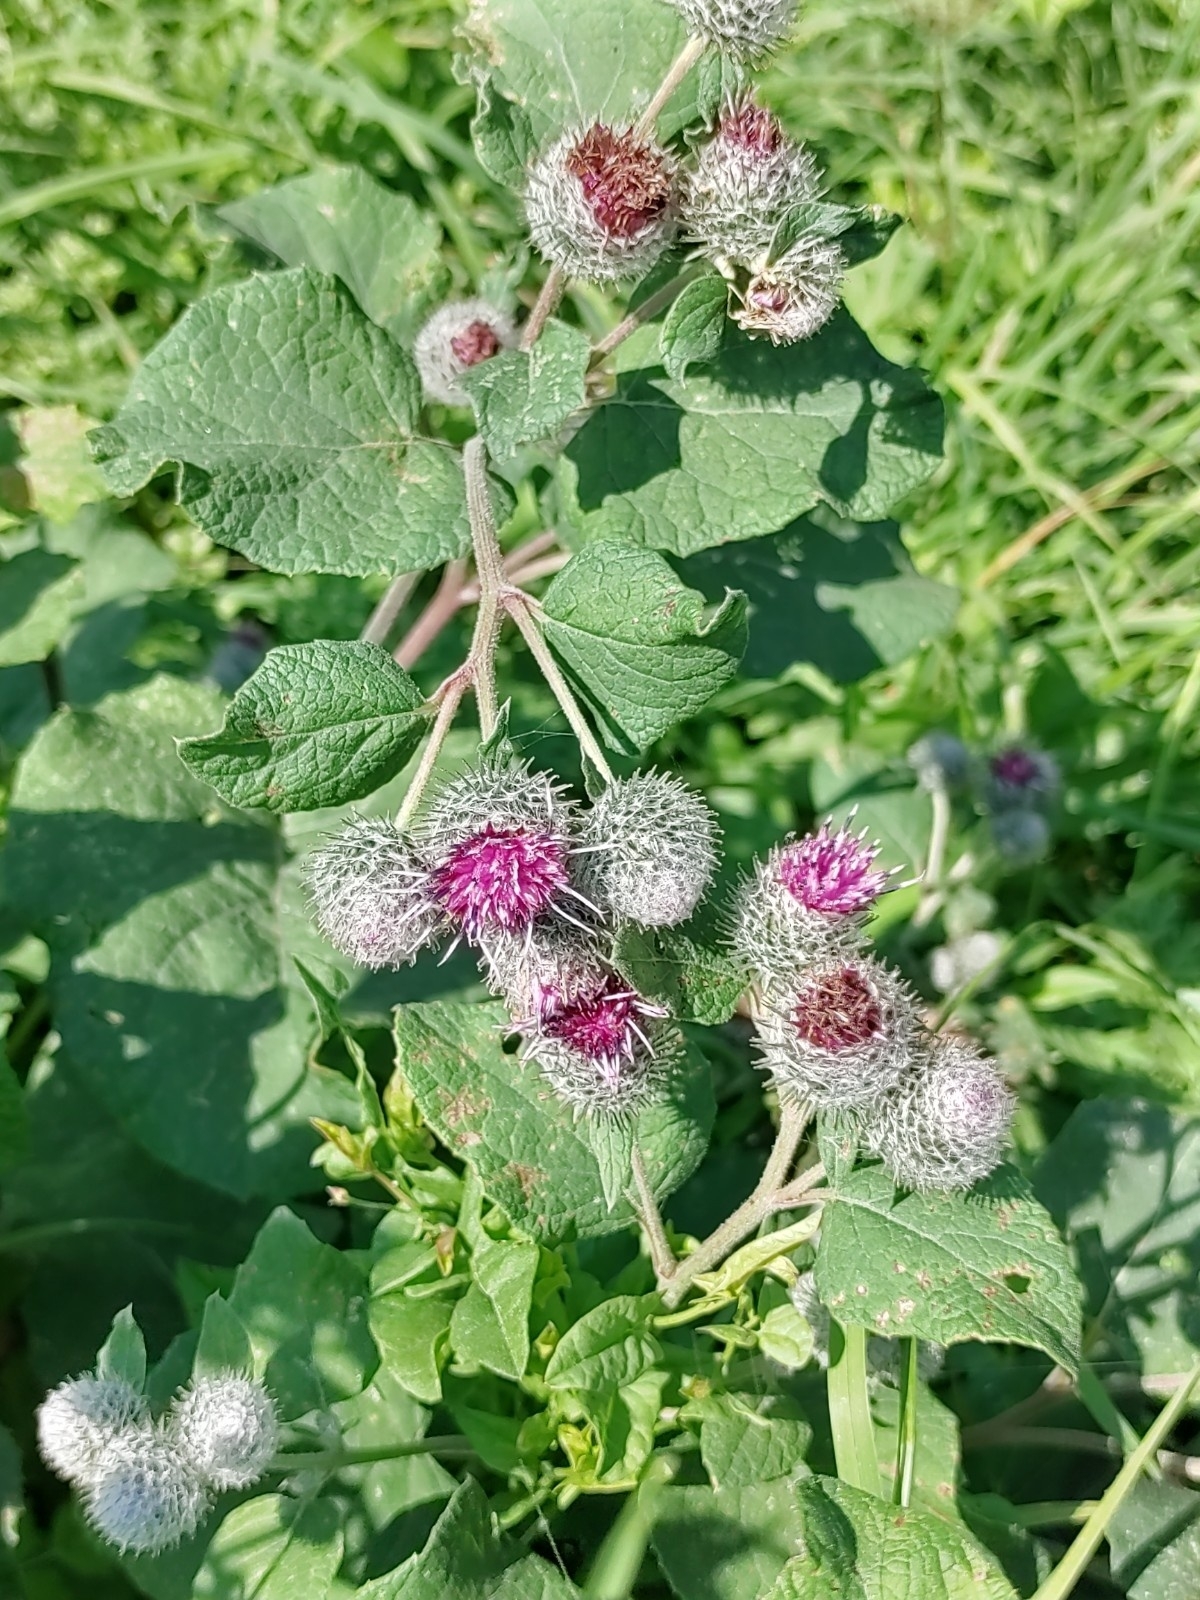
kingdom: Plantae
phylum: Tracheophyta
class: Magnoliopsida
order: Asterales
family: Asteraceae
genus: Arctium
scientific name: Arctium tomentosum
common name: Woolly burdock
